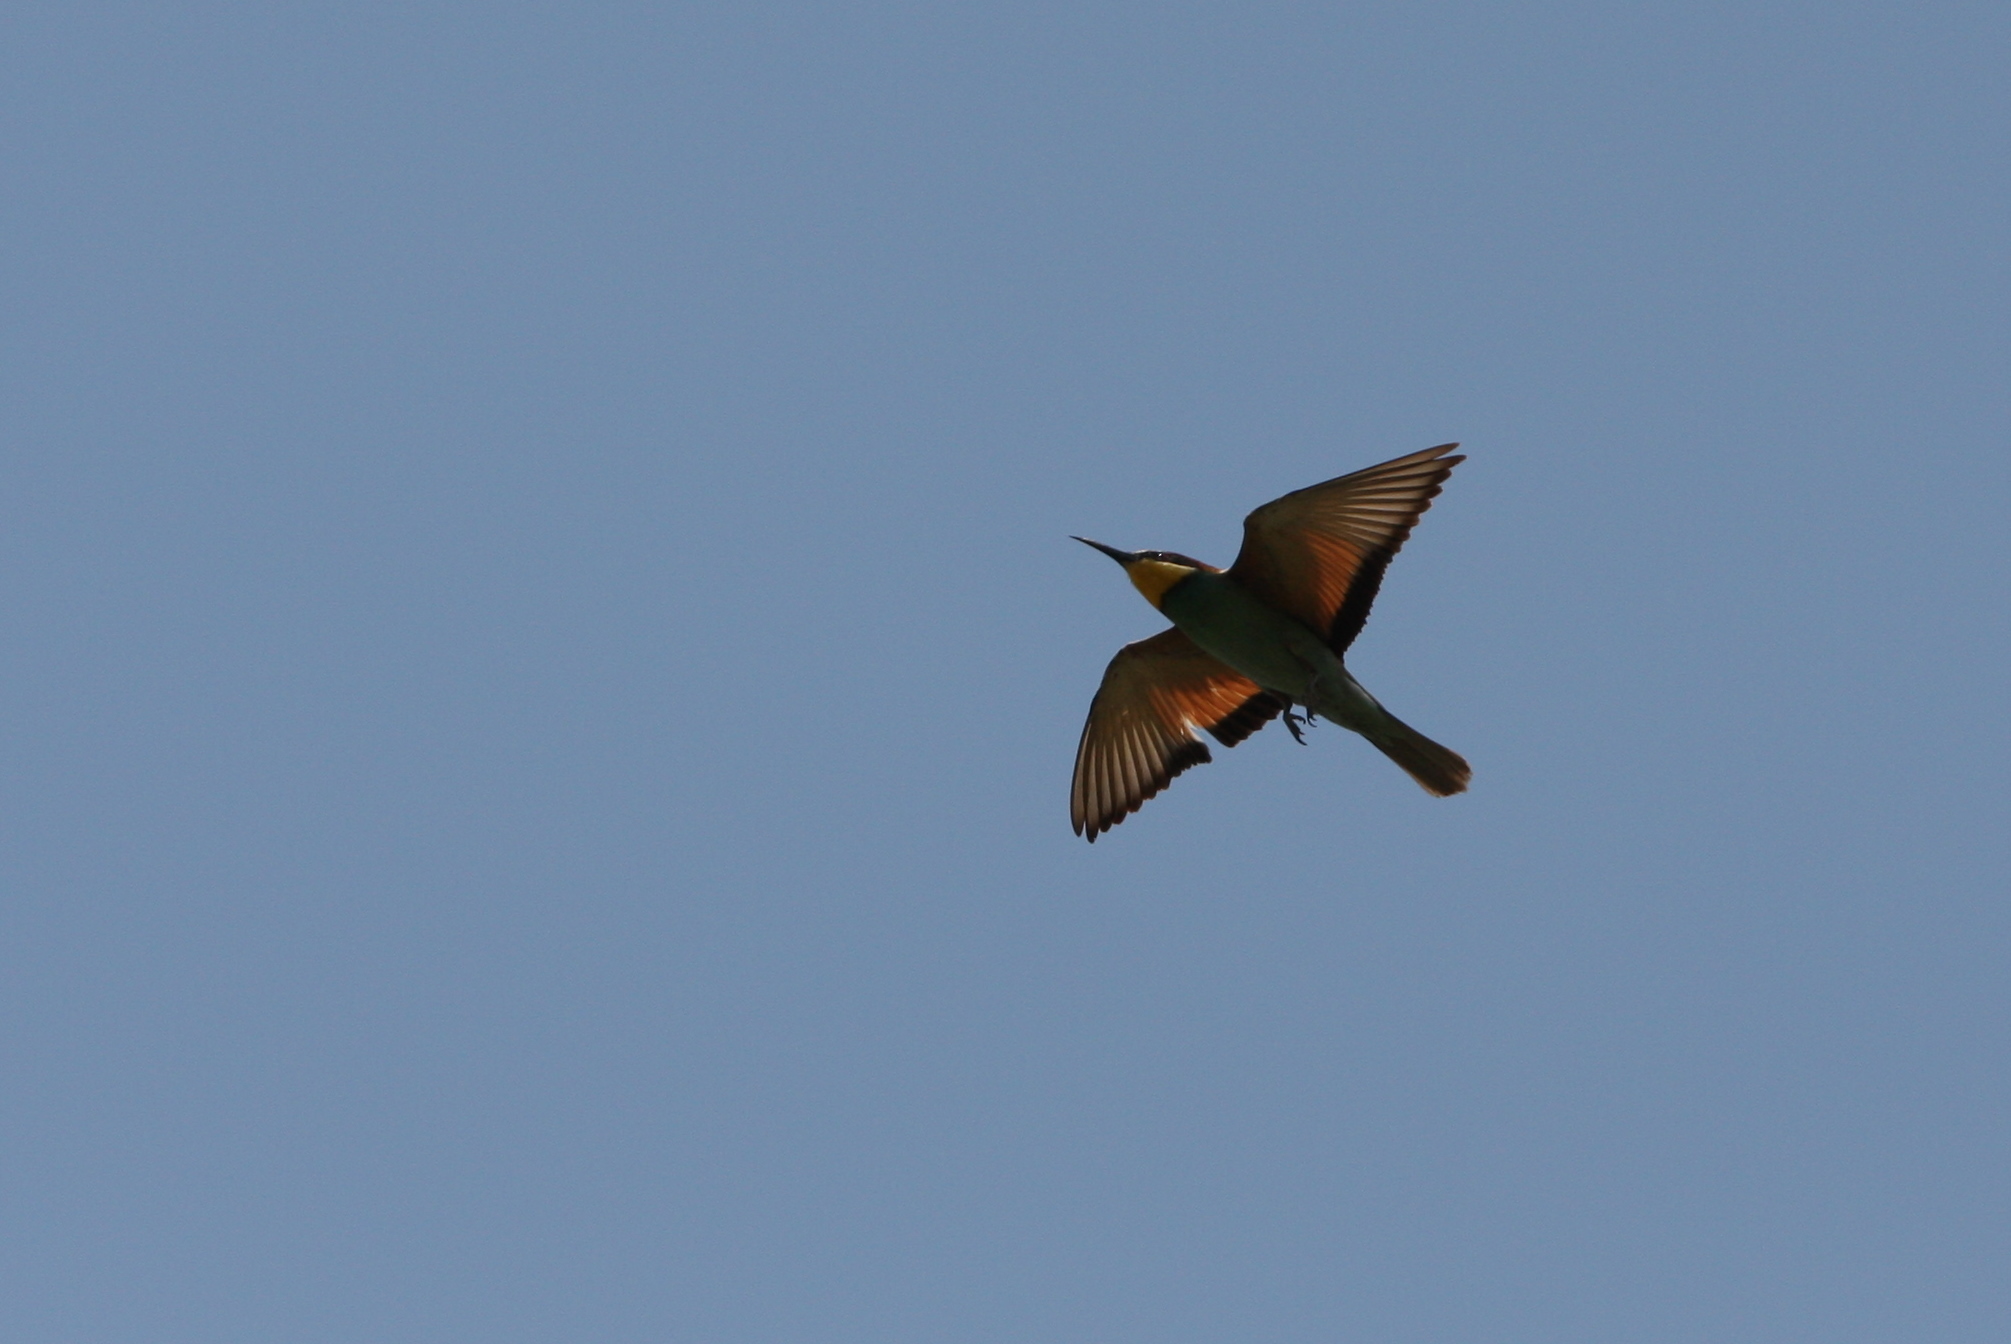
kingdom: Animalia
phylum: Chordata
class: Aves
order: Coraciiformes
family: Meropidae
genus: Merops
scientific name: Merops apiaster
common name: European bee-eater
